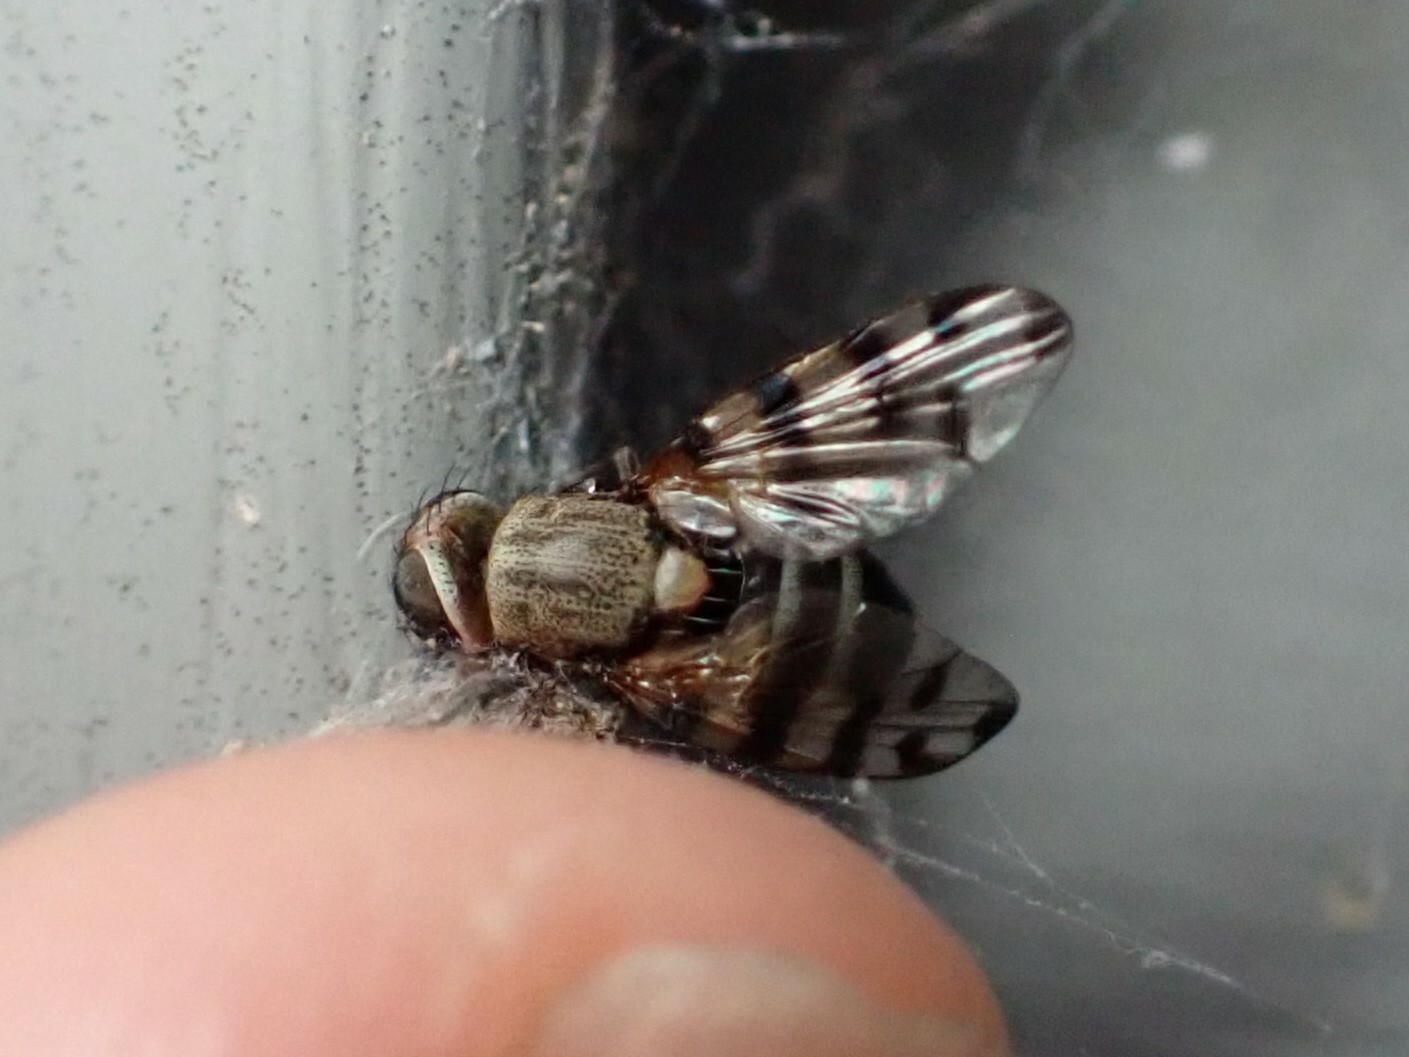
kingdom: Animalia
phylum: Arthropoda
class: Insecta
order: Diptera
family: Ulidiidae
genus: Ceroxys
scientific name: Ceroxys latiusculus
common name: Picture-winged fly
